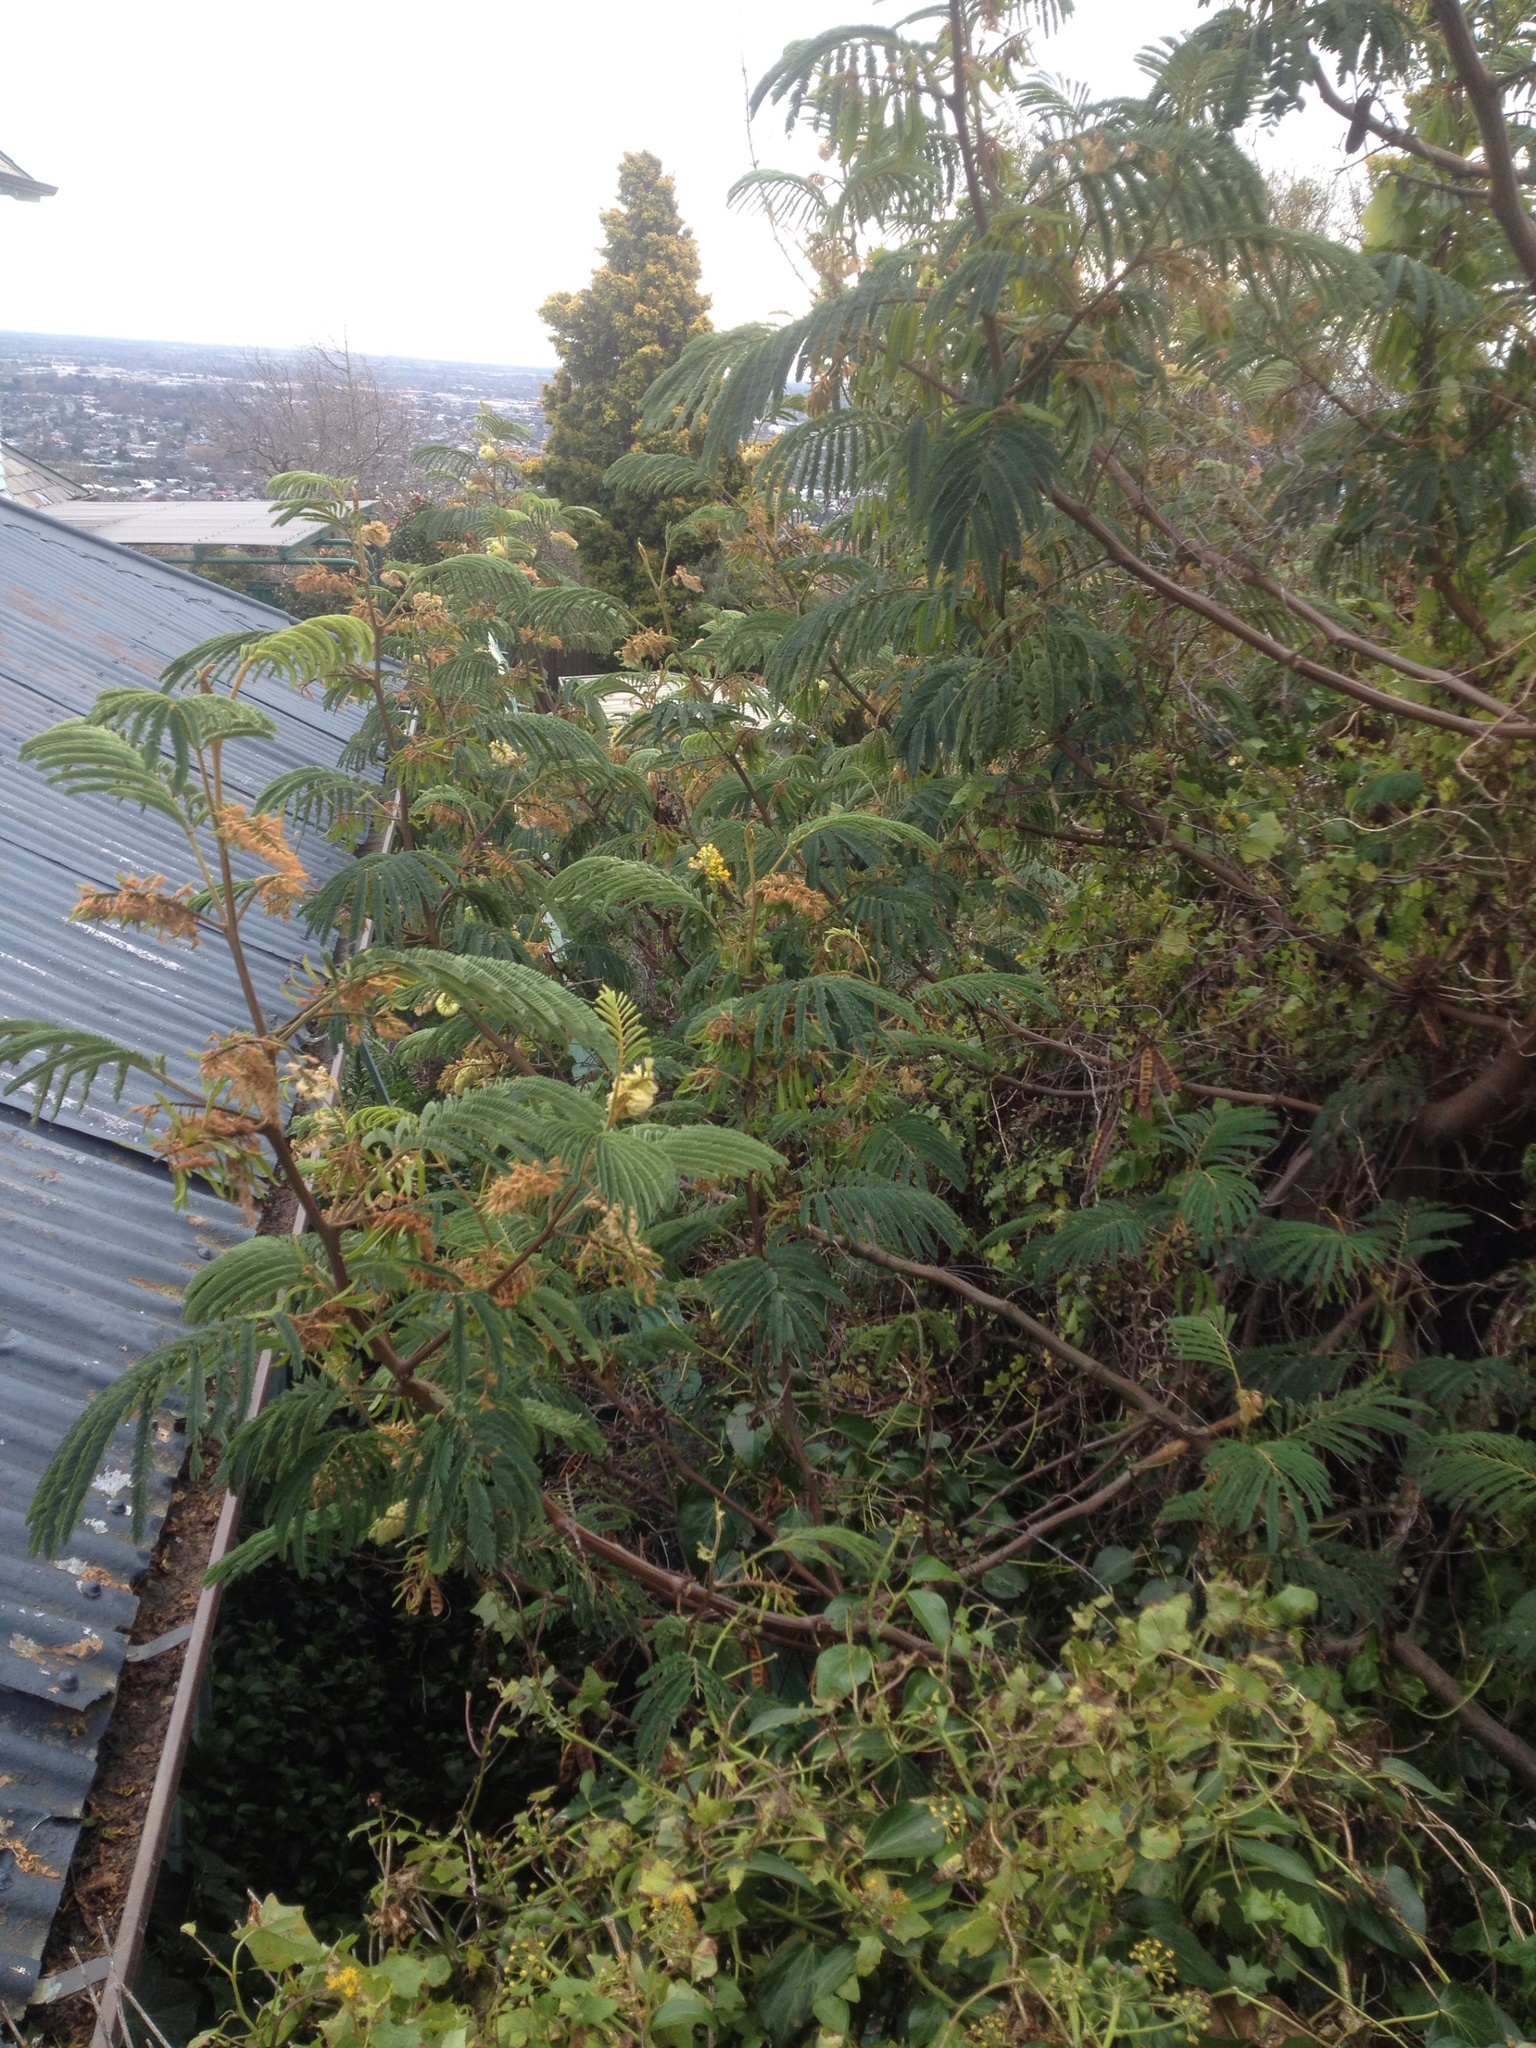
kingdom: Plantae
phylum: Tracheophyta
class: Magnoliopsida
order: Fabales
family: Fabaceae
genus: Paraserianthes
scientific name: Paraserianthes lophantha
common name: Plume albizia
